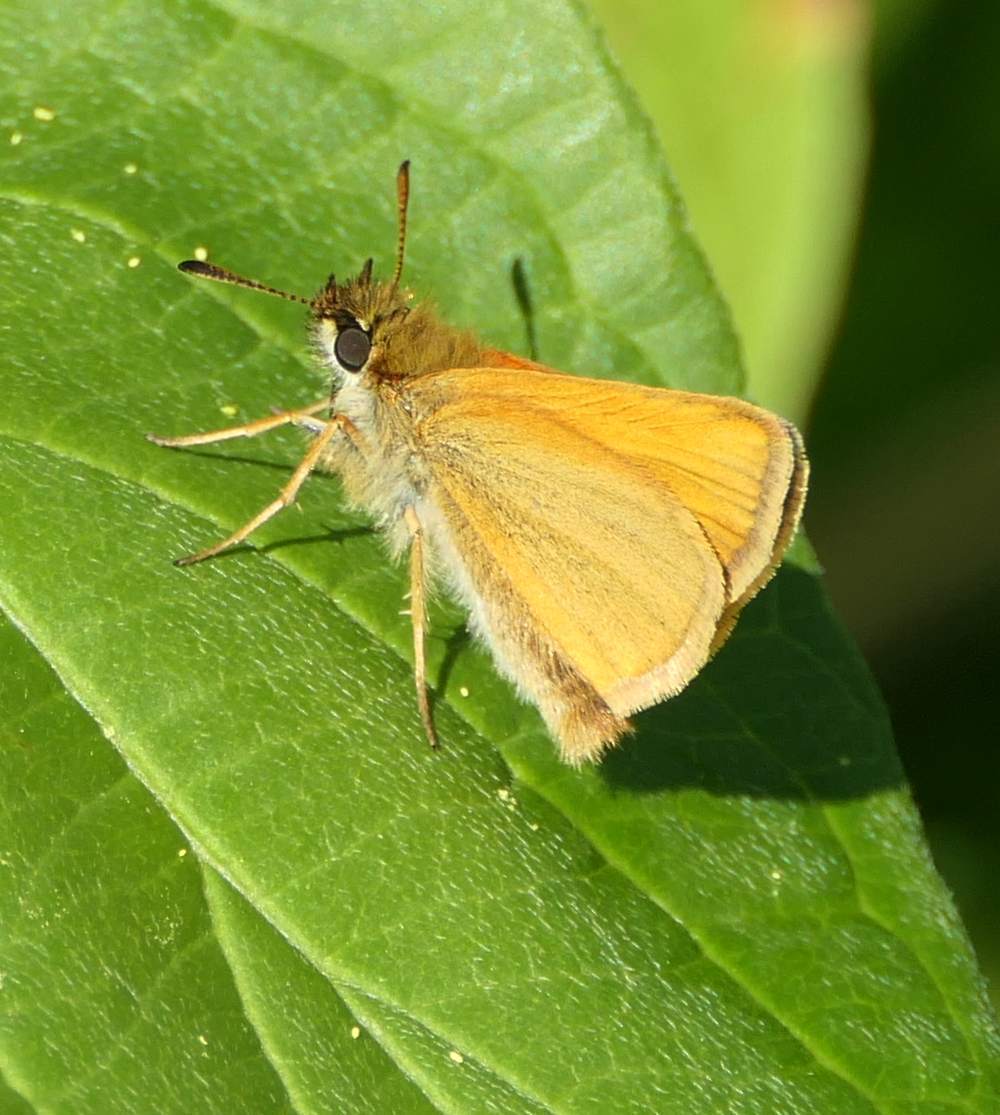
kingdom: Animalia
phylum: Arthropoda
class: Insecta
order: Lepidoptera
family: Hesperiidae
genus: Thymelicus
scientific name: Thymelicus lineola
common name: Essex skipper
